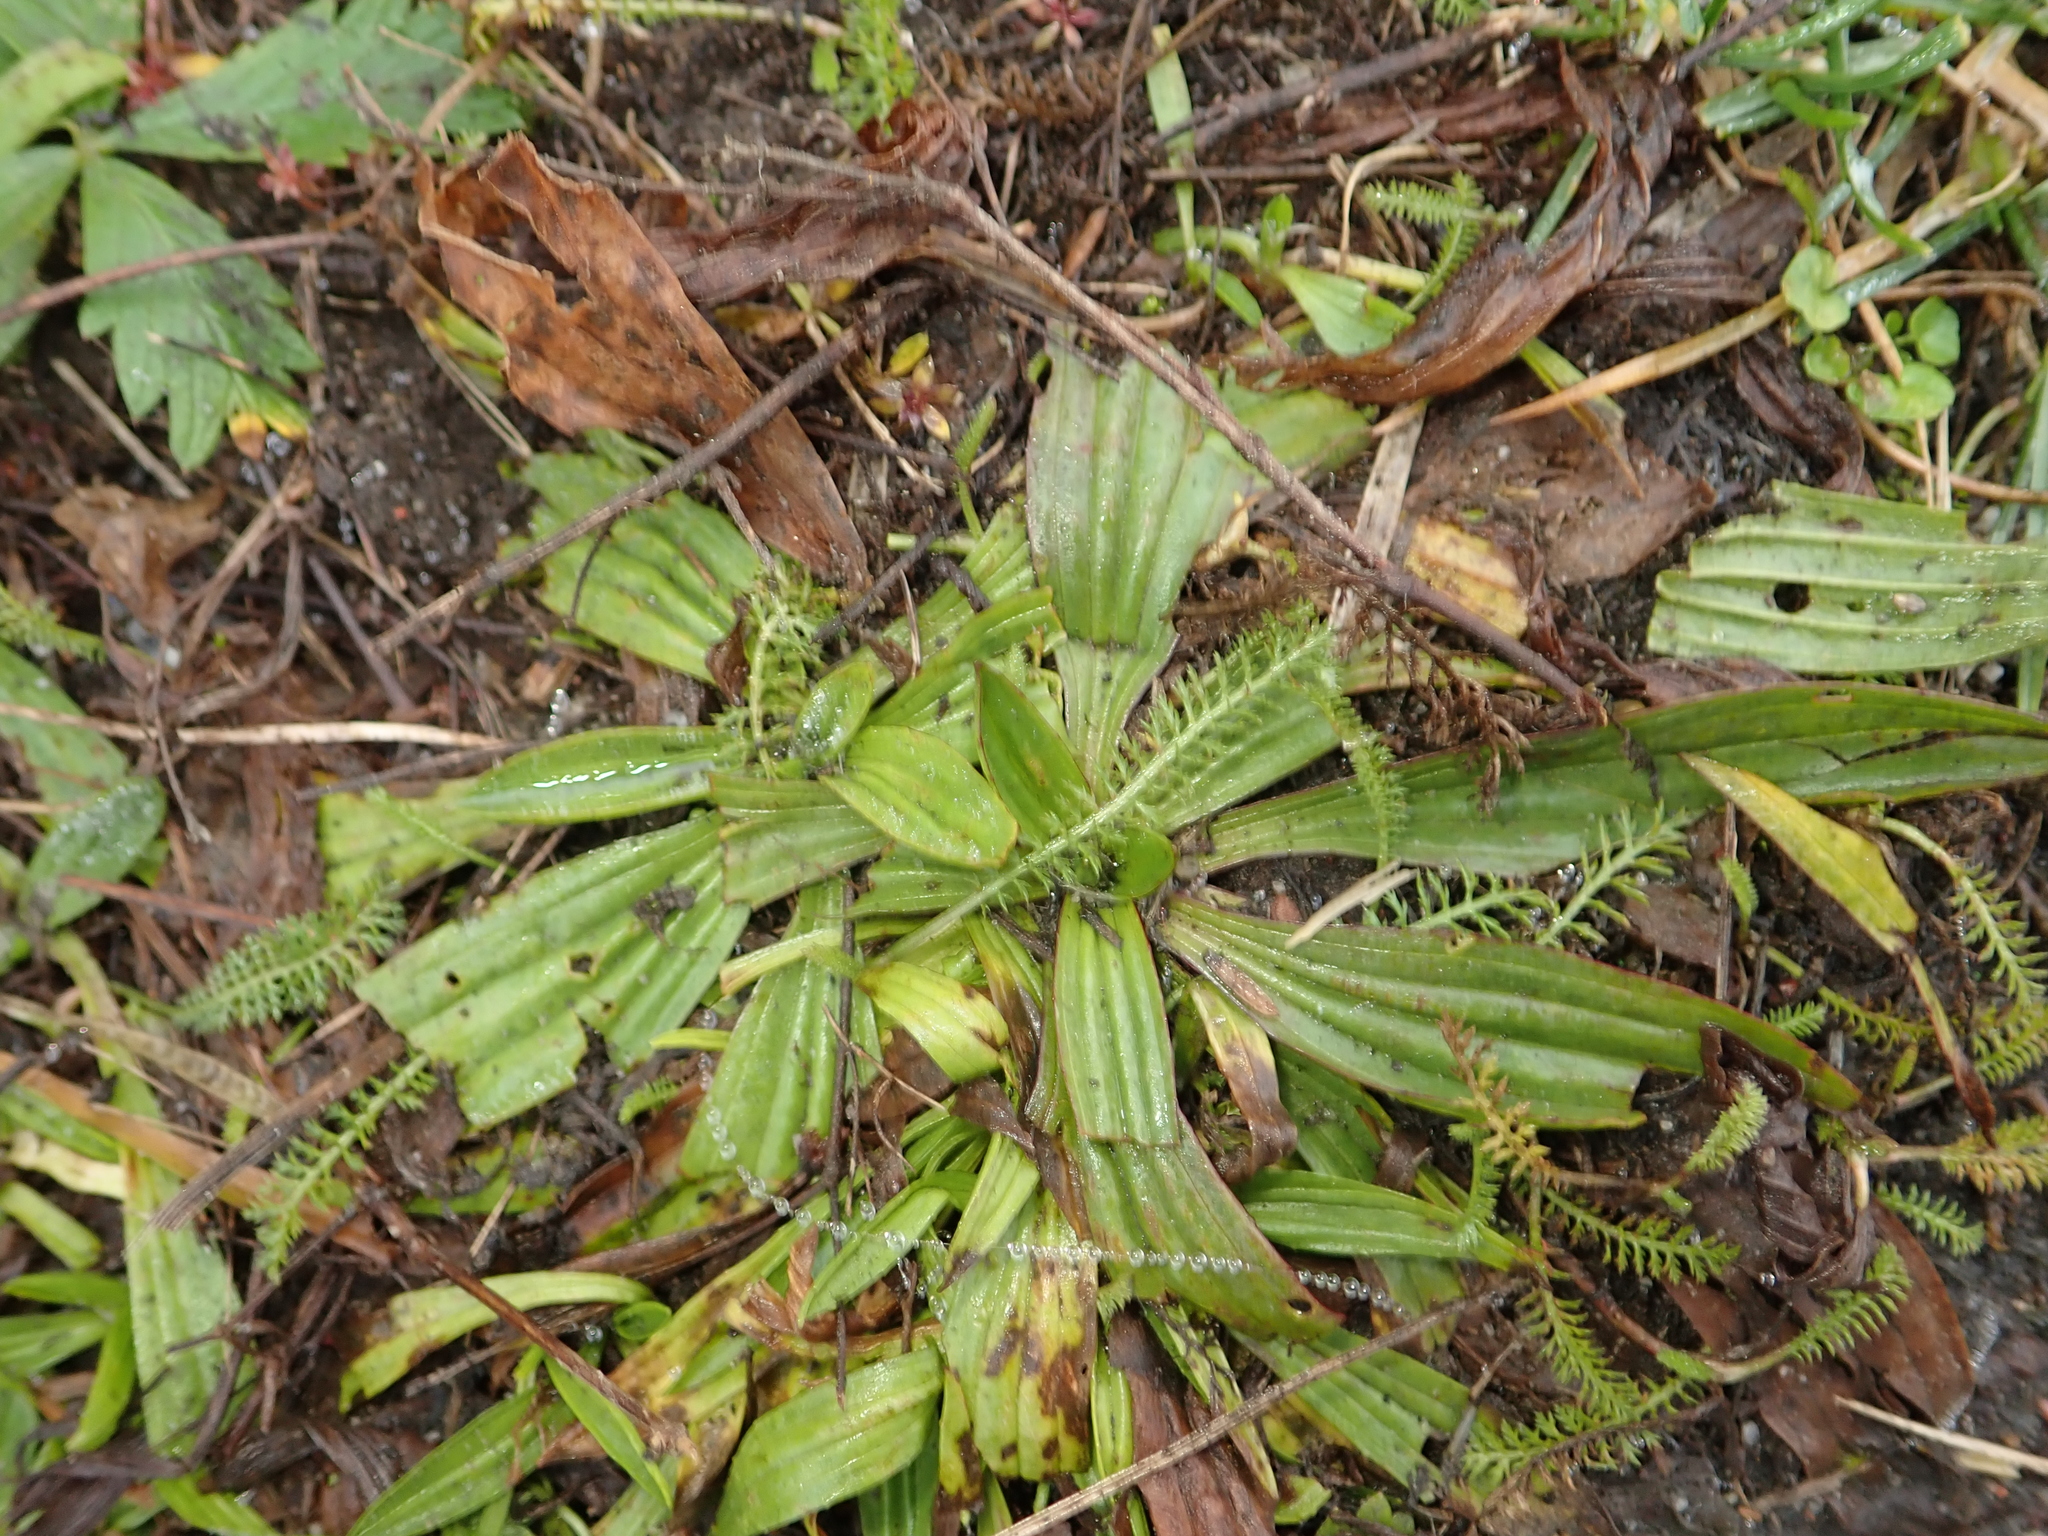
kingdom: Plantae
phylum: Tracheophyta
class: Magnoliopsida
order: Lamiales
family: Plantaginaceae
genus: Plantago
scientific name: Plantago lanceolata
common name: Ribwort plantain
